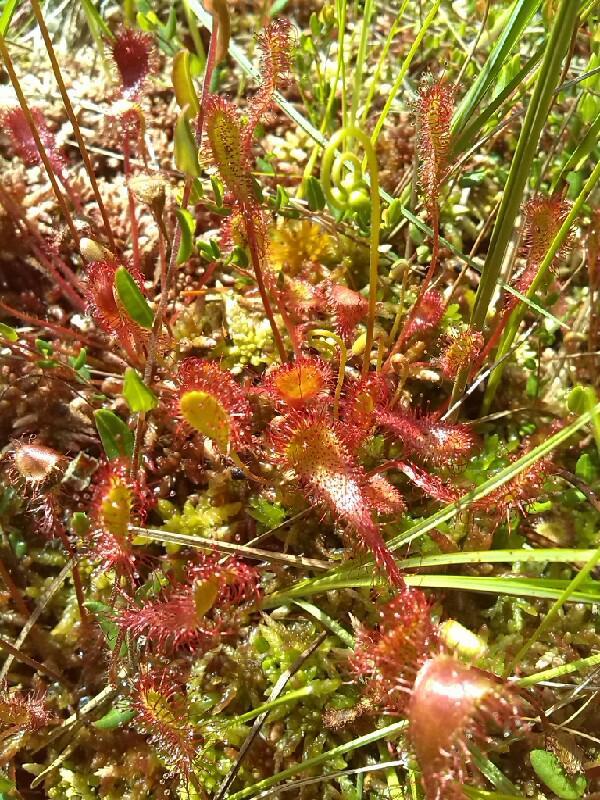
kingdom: Plantae
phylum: Tracheophyta
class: Magnoliopsida
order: Caryophyllales
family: Droseraceae
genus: Drosera
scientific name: Drosera obovata
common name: Ivan's paddle
